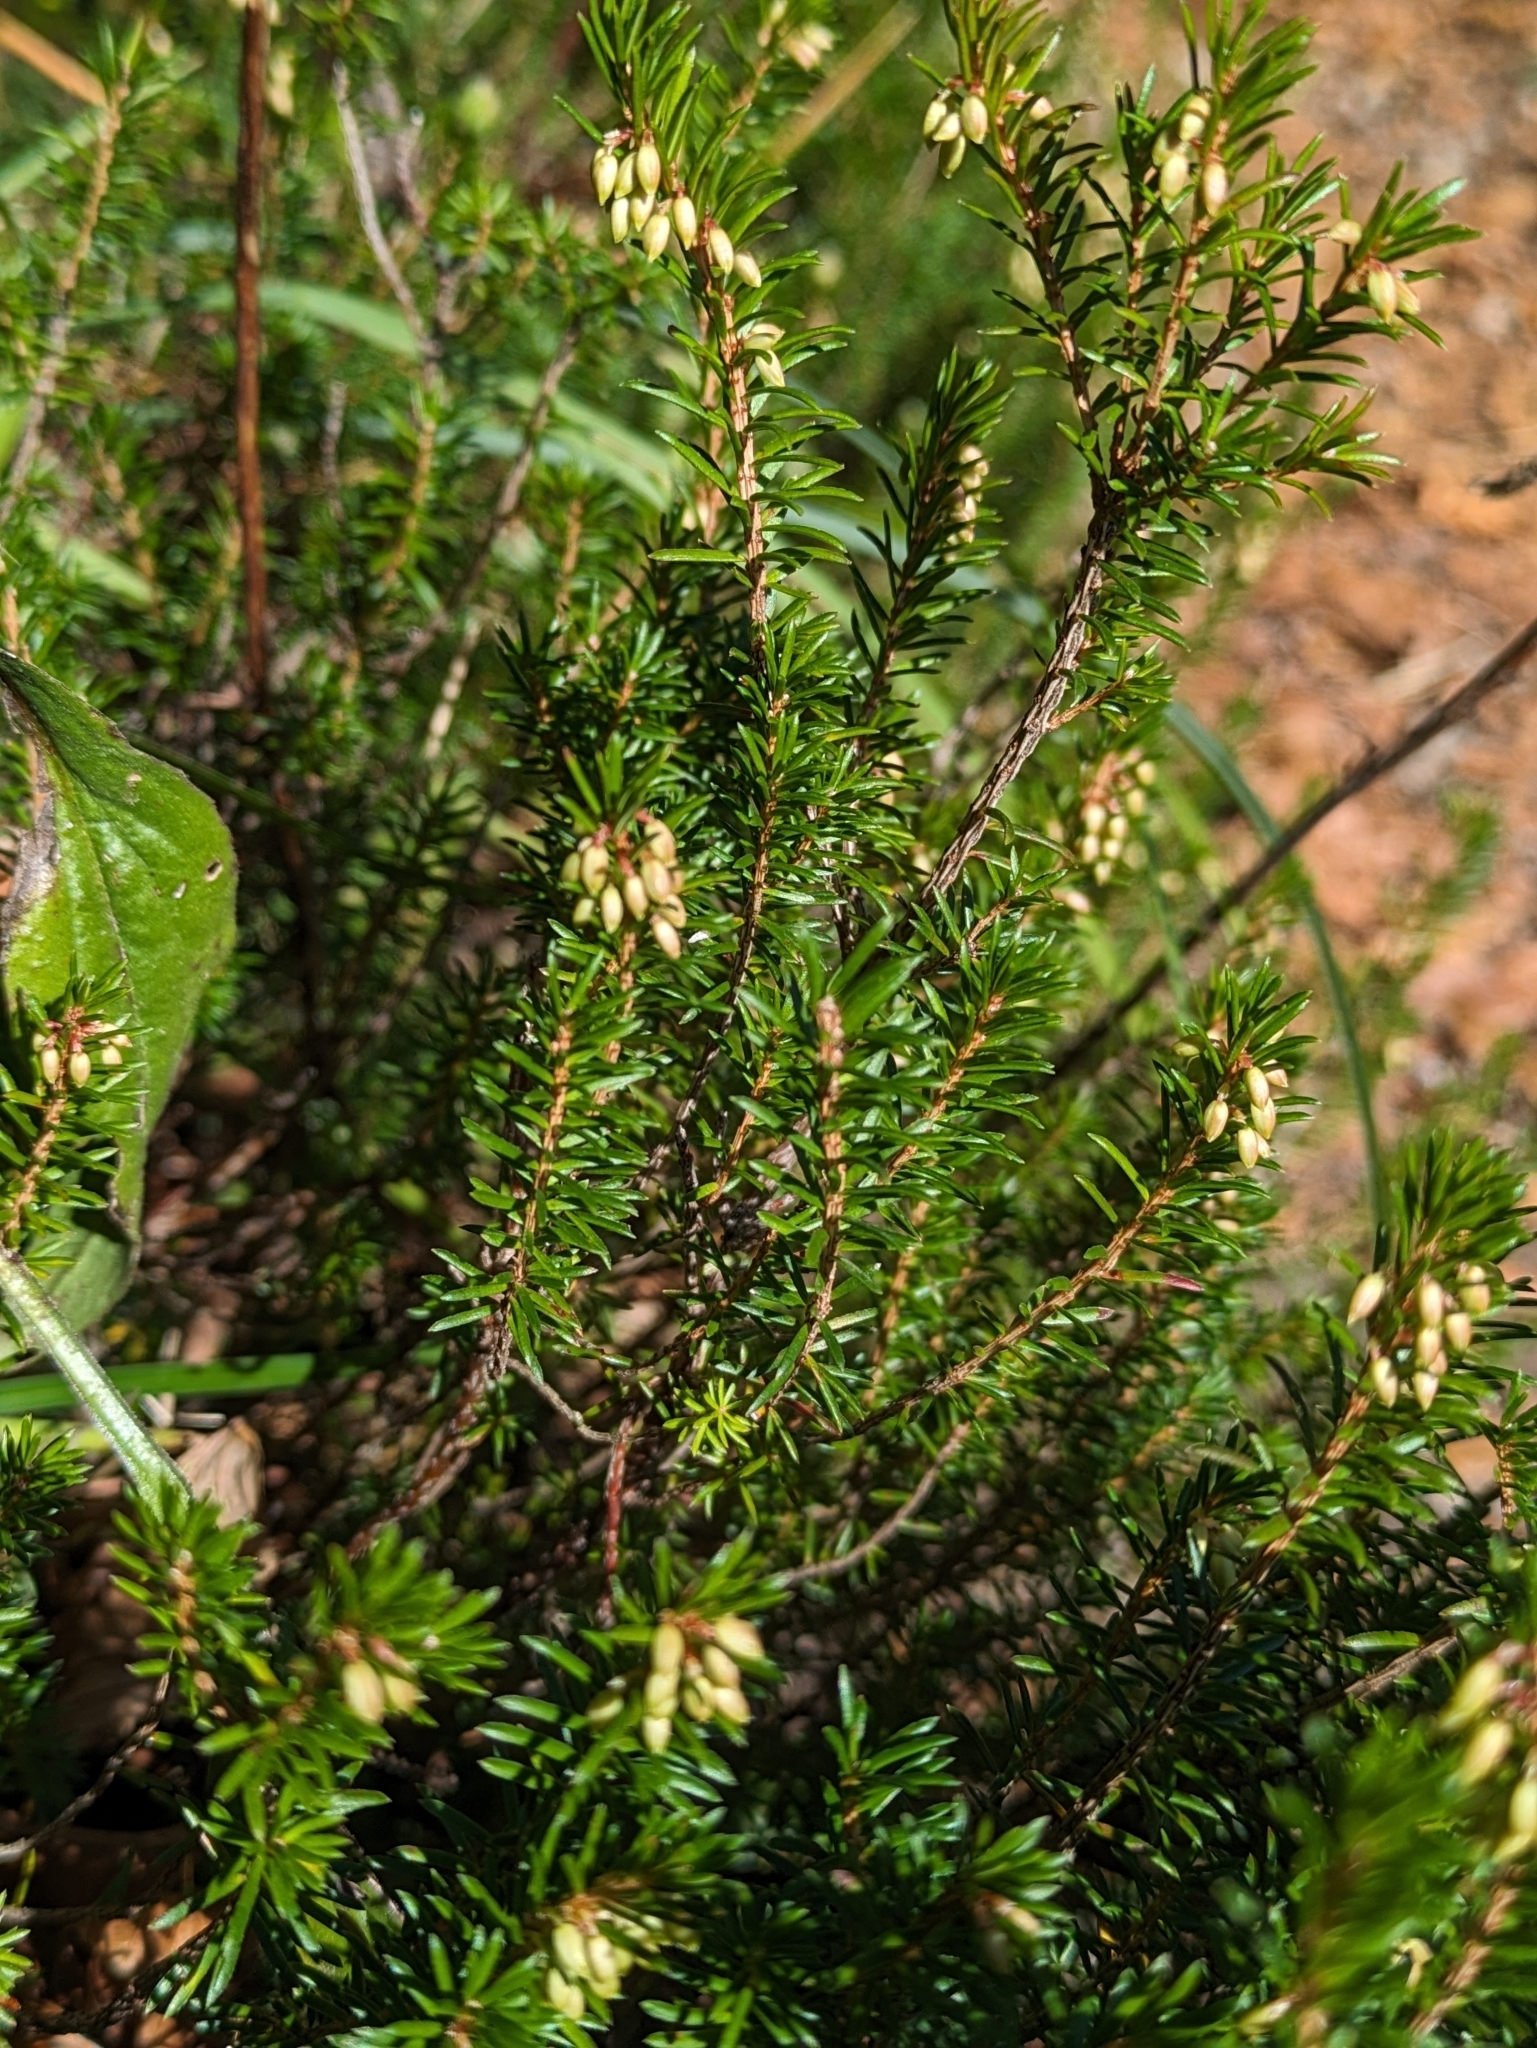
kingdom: Plantae
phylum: Tracheophyta
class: Magnoliopsida
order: Ericales
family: Ericaceae
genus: Erica
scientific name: Erica carnea
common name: Winter heath
